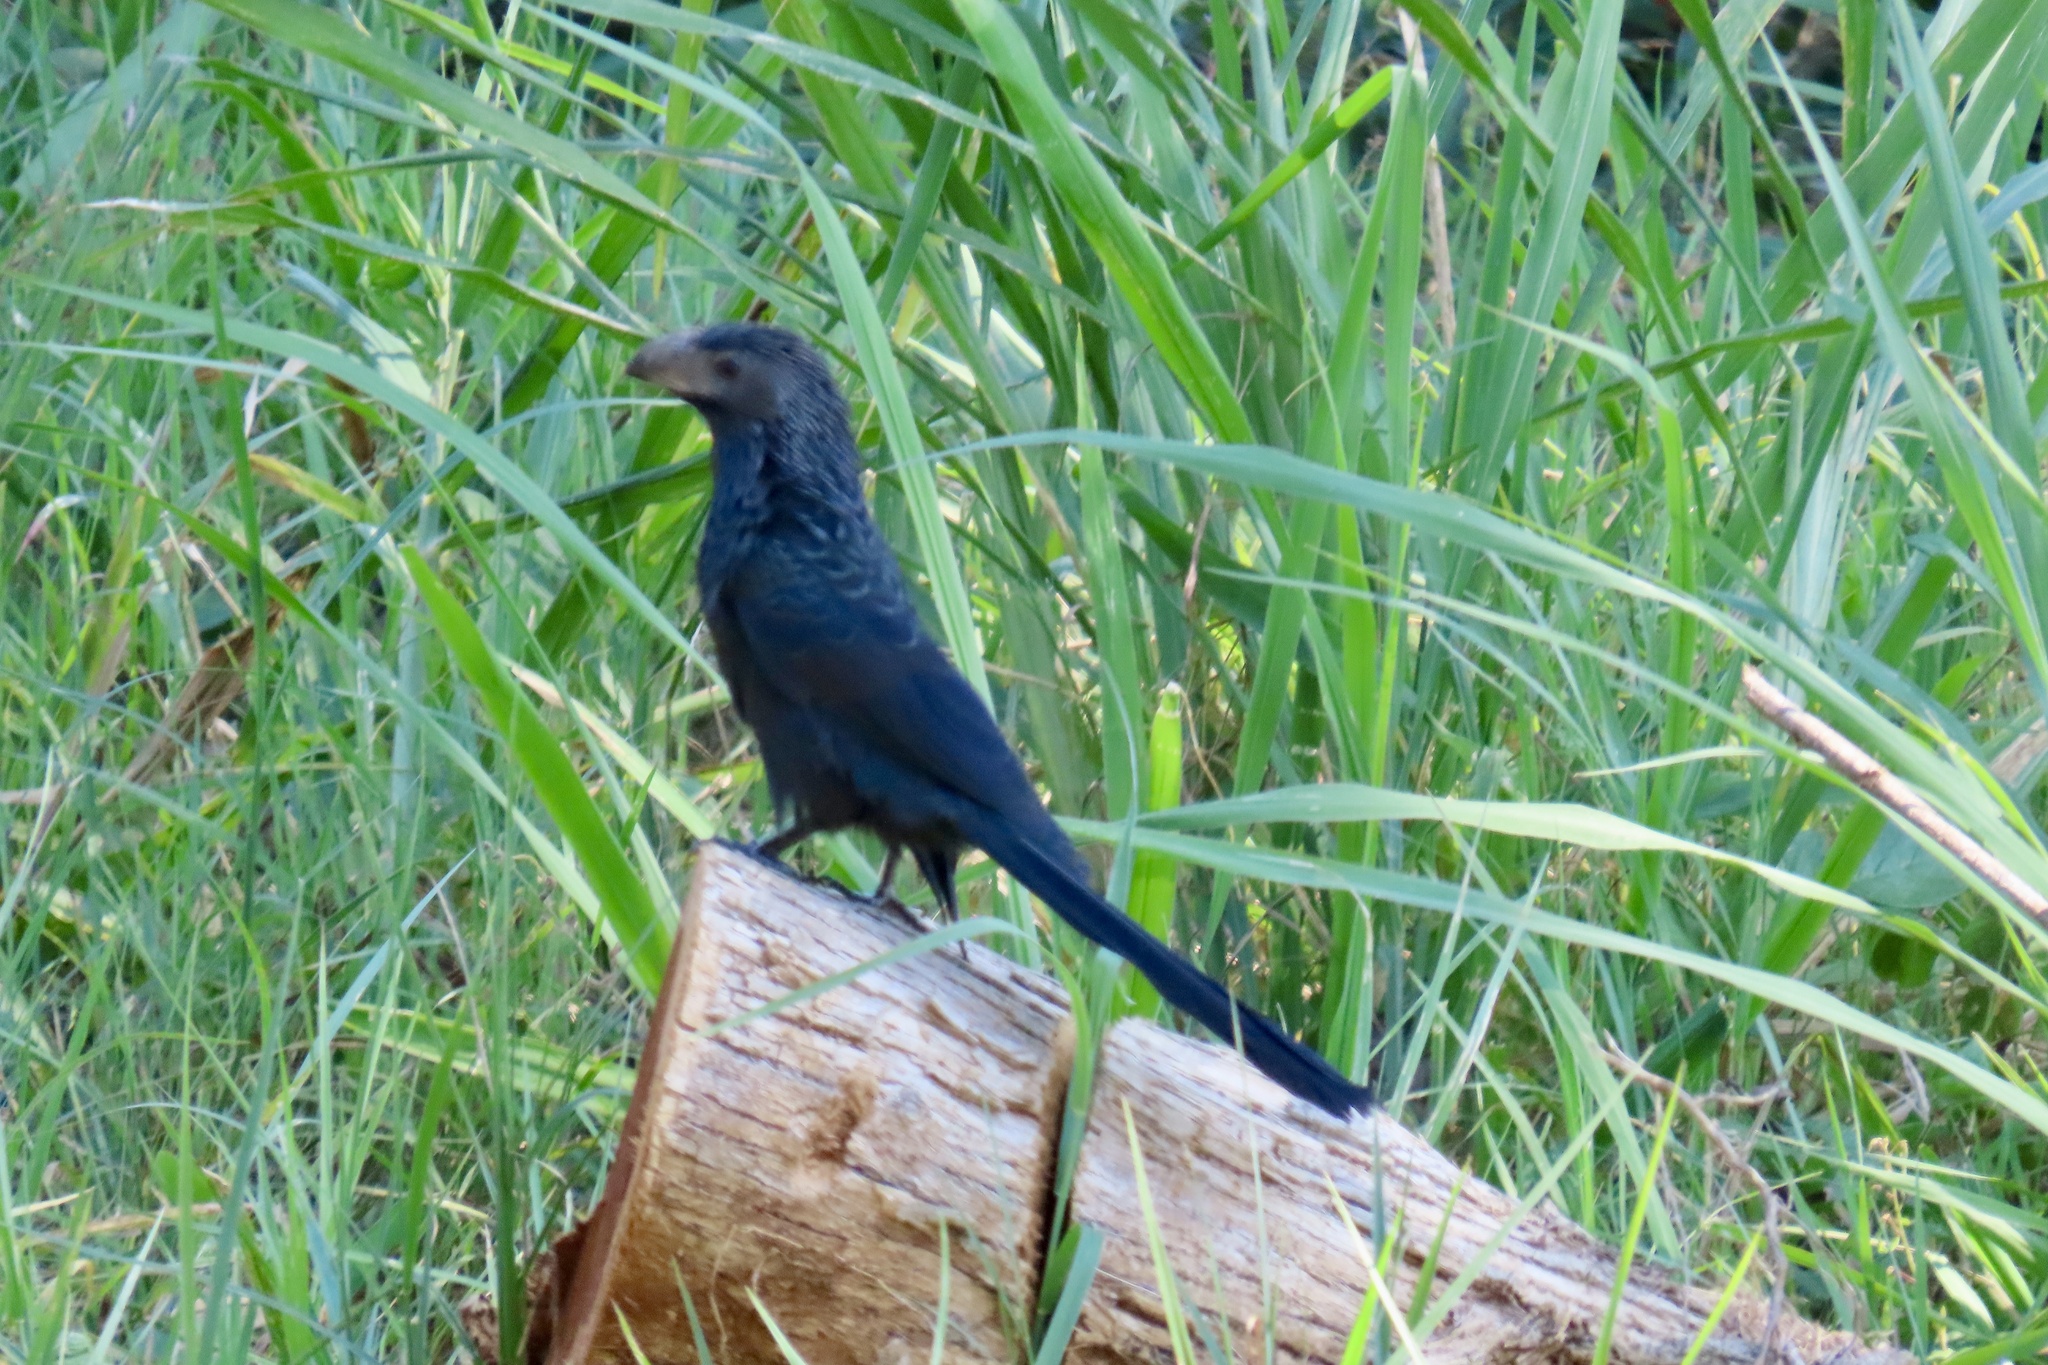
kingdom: Animalia
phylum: Chordata
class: Aves
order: Cuculiformes
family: Cuculidae
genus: Crotophaga
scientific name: Crotophaga sulcirostris
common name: Groove-billed ani
